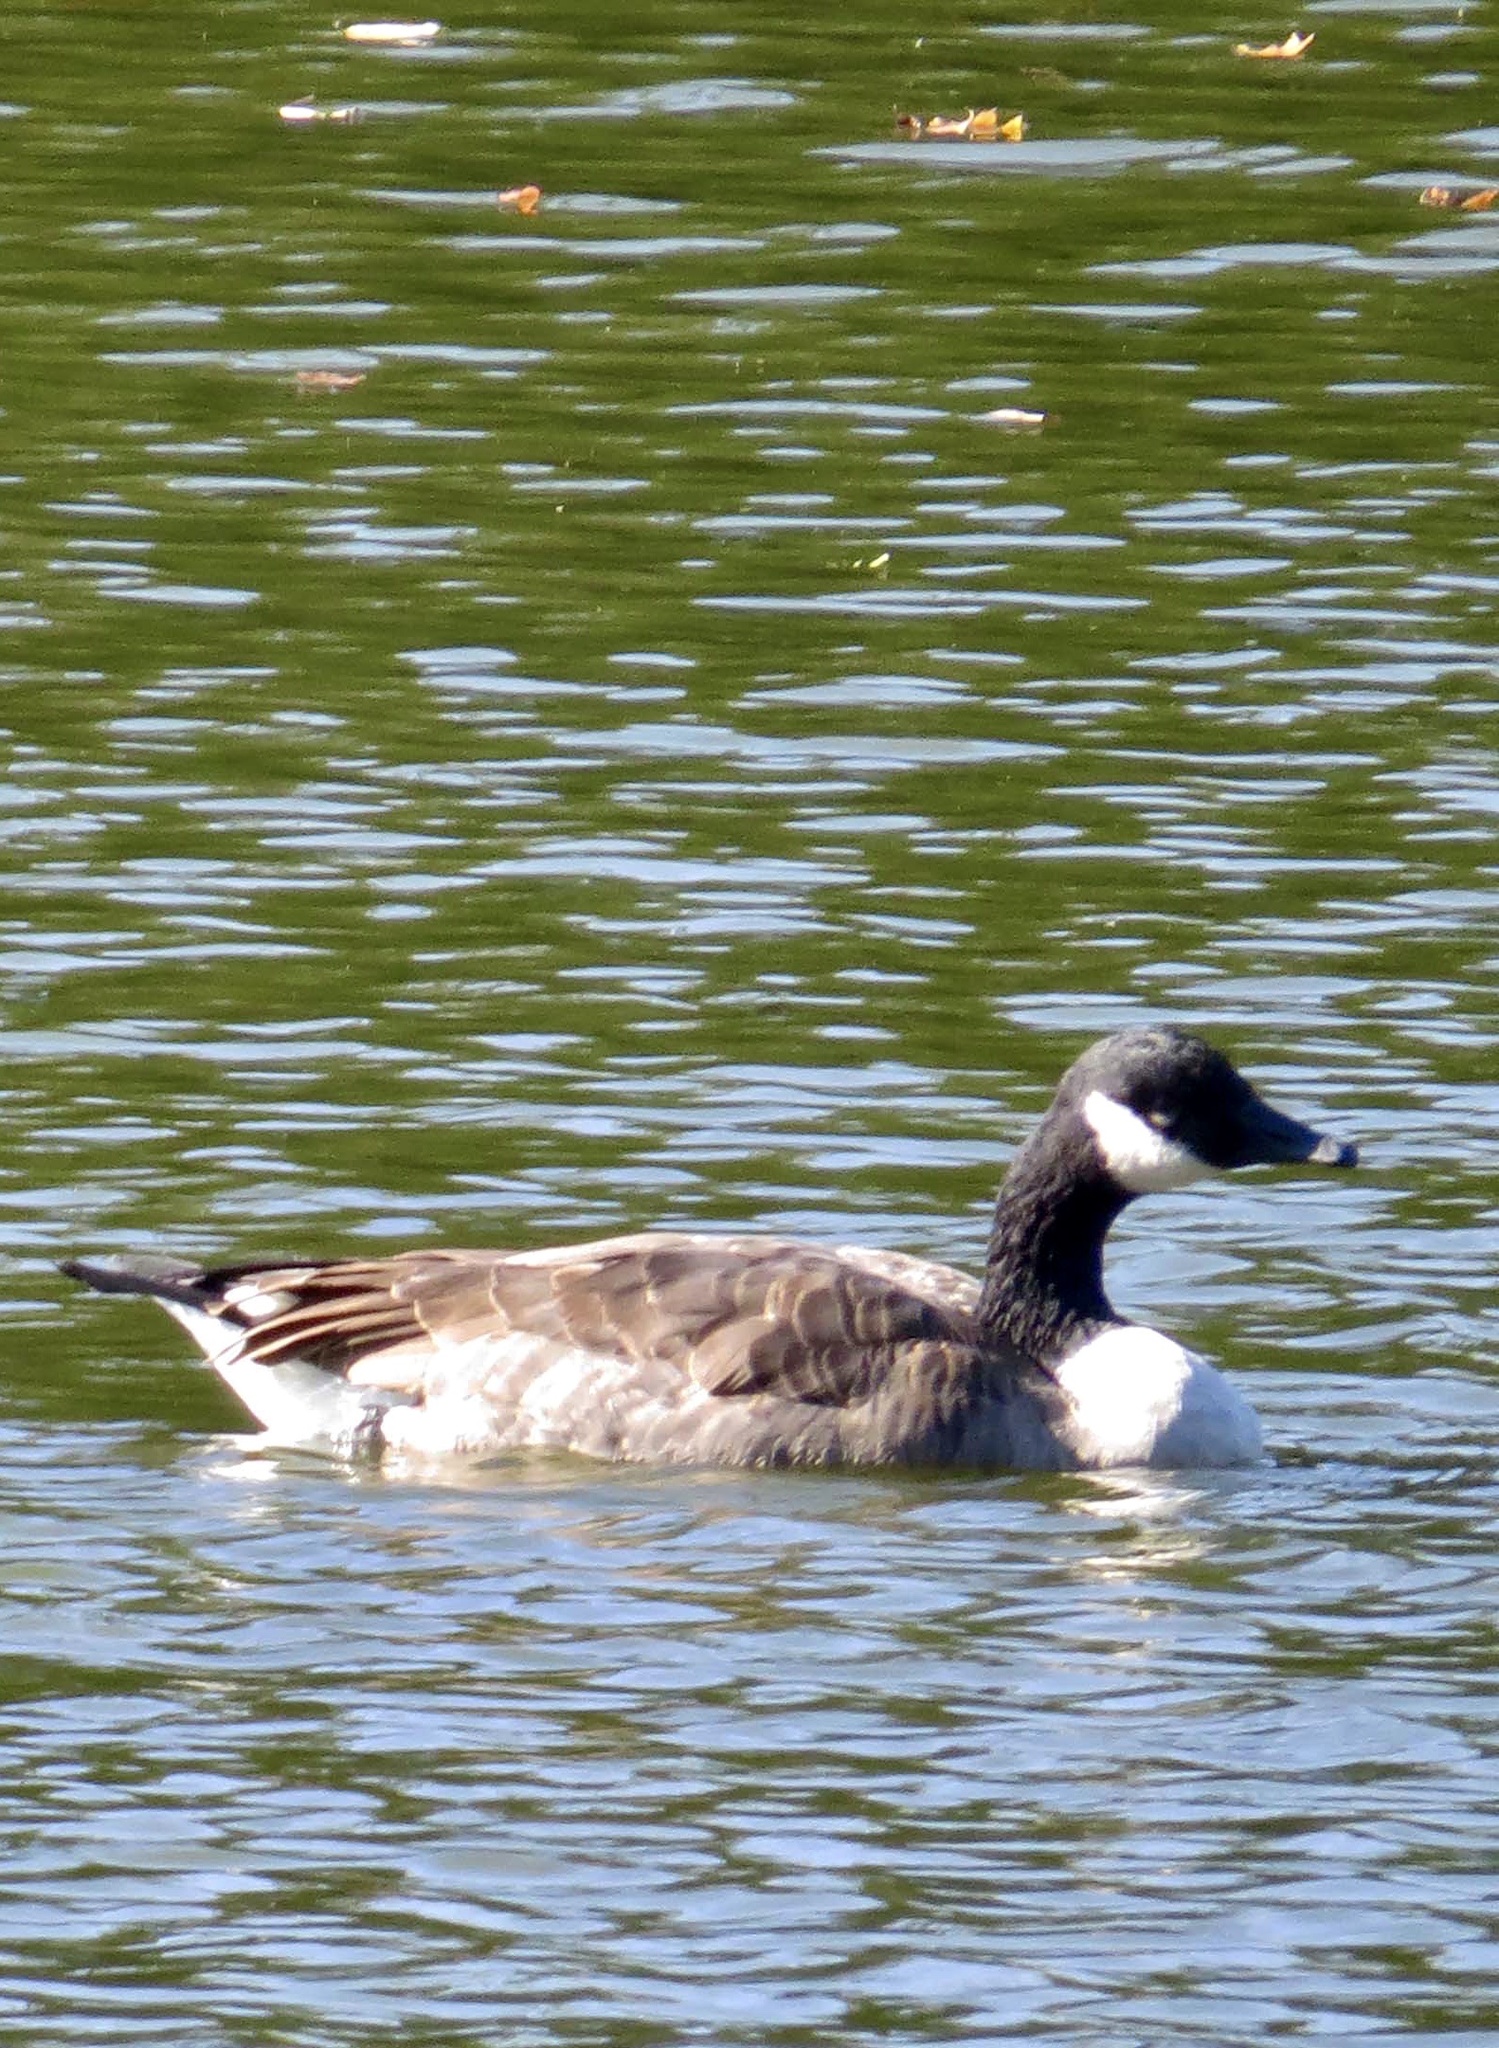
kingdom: Animalia
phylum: Chordata
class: Aves
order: Anseriformes
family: Anatidae
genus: Branta
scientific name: Branta canadensis
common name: Canada goose
